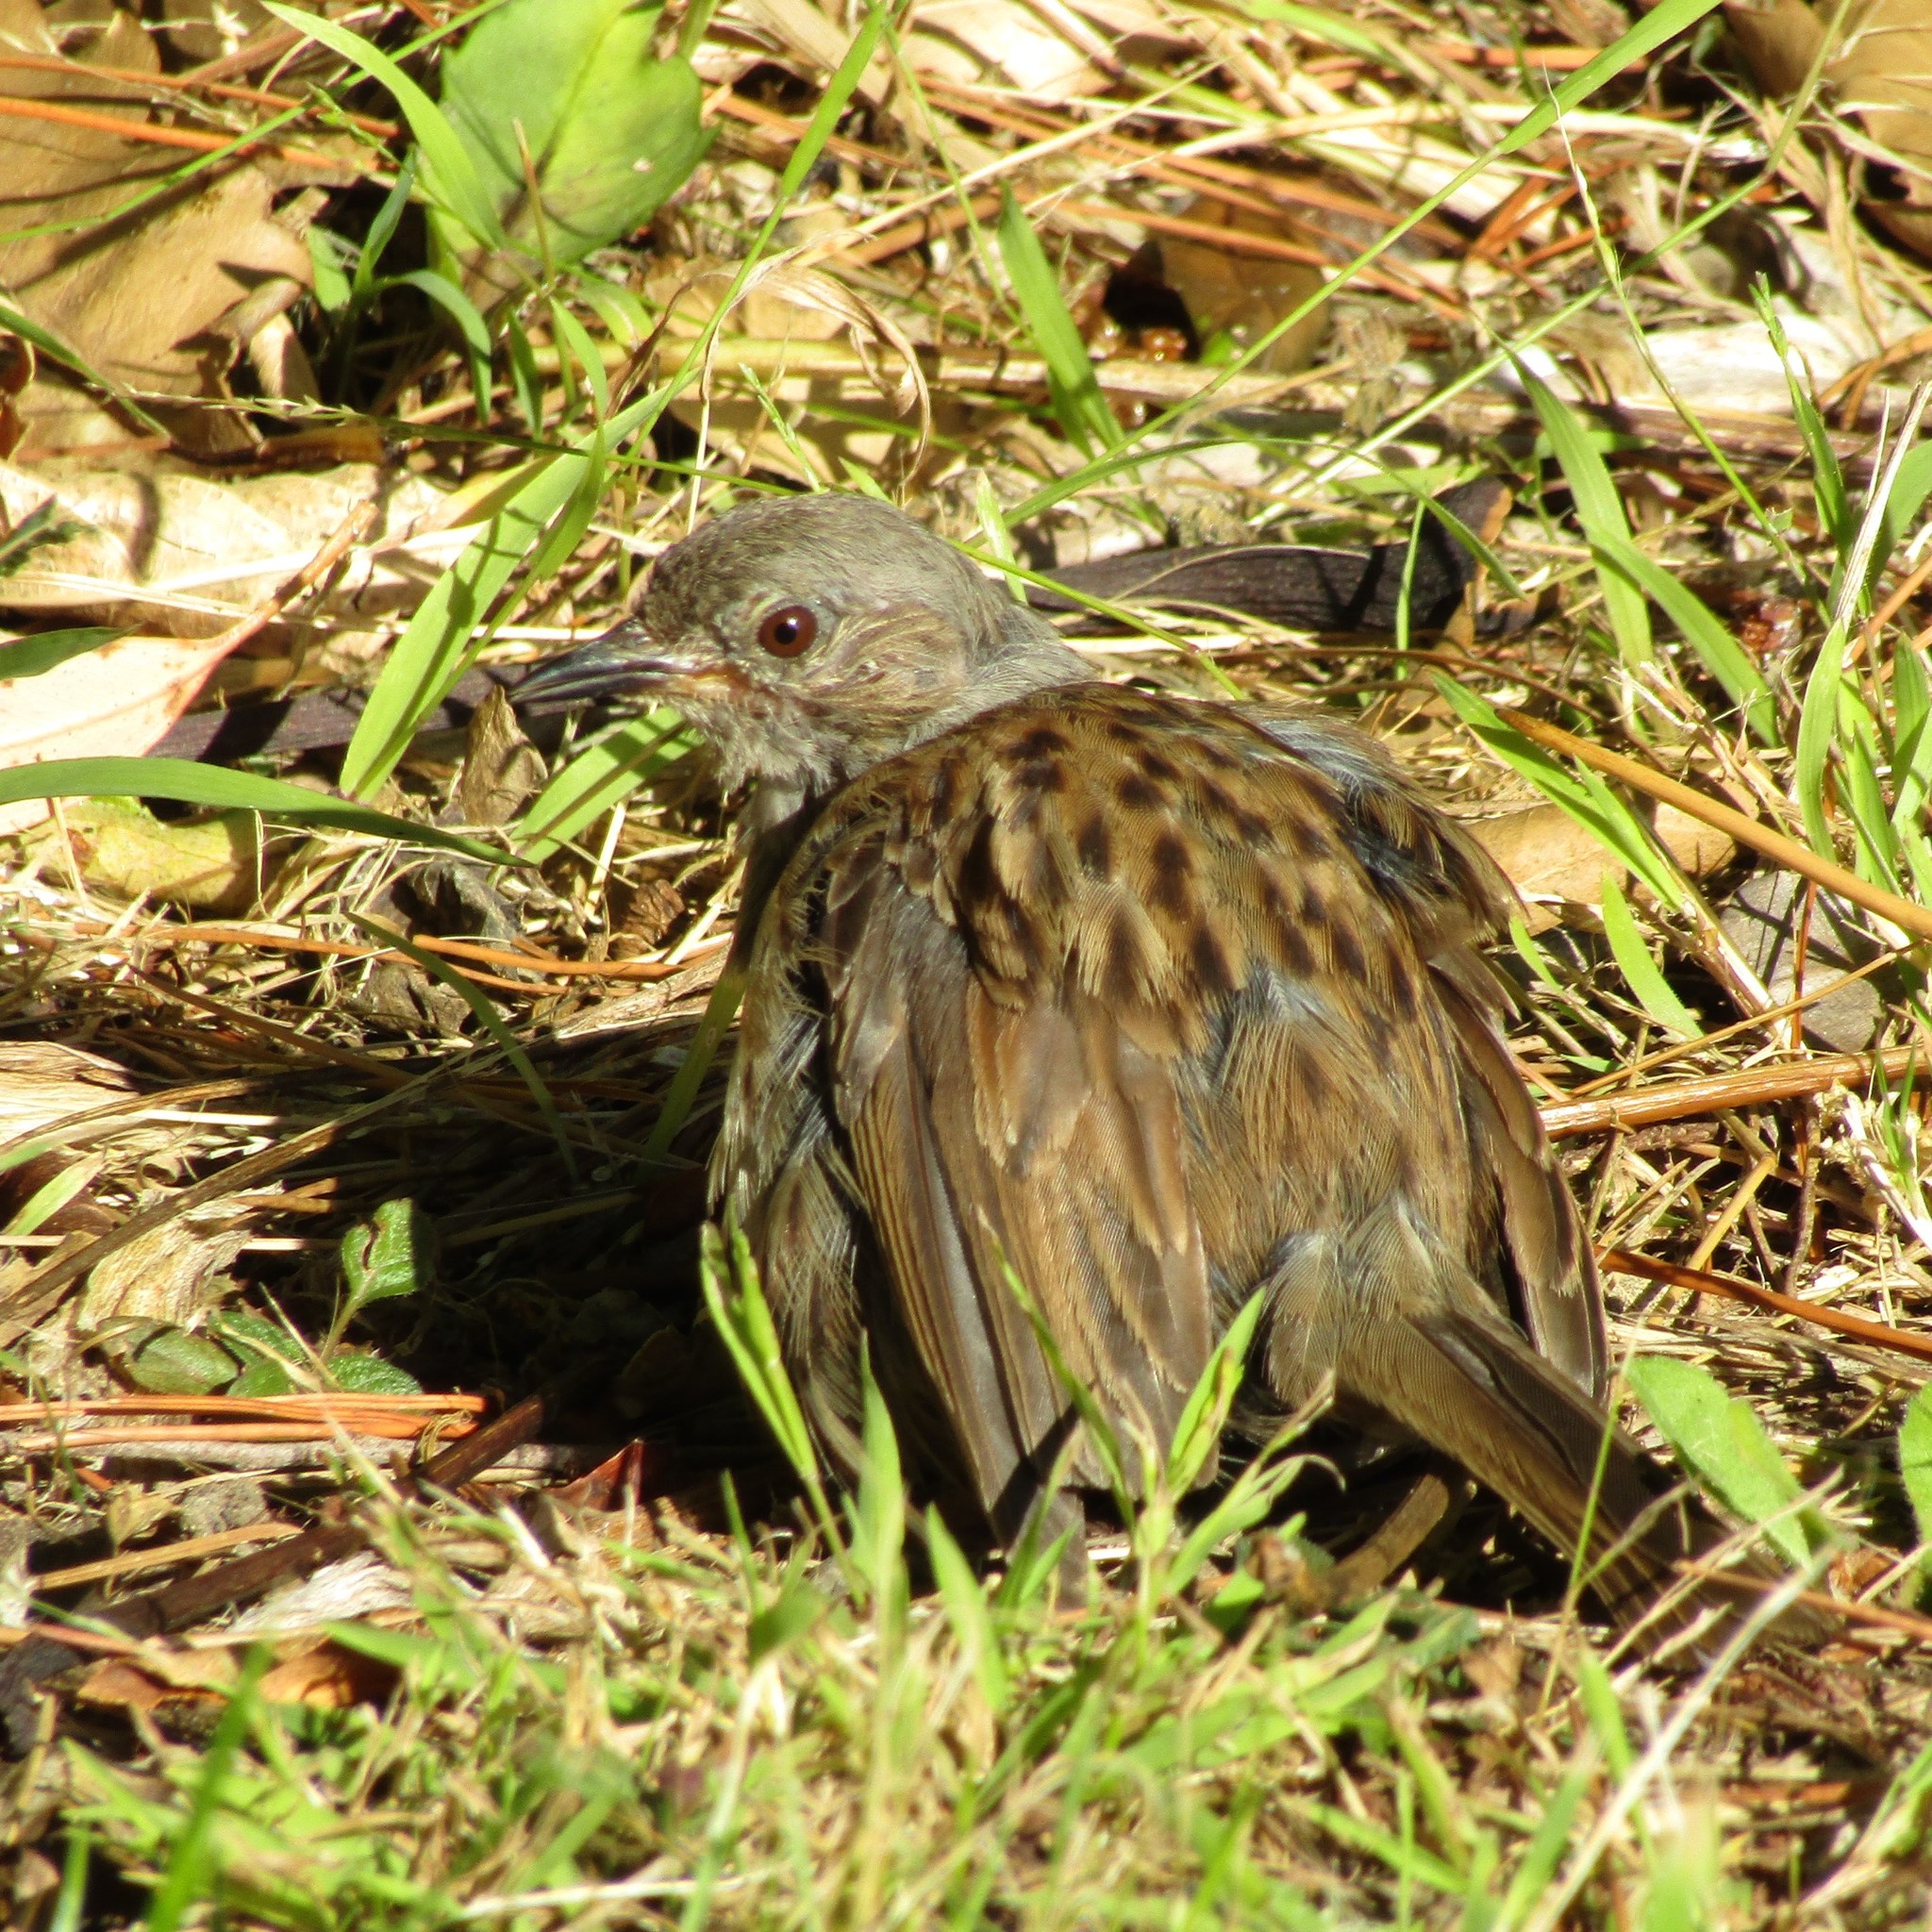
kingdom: Animalia
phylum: Chordata
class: Aves
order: Passeriformes
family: Prunellidae
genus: Prunella
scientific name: Prunella modularis
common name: Dunnock
